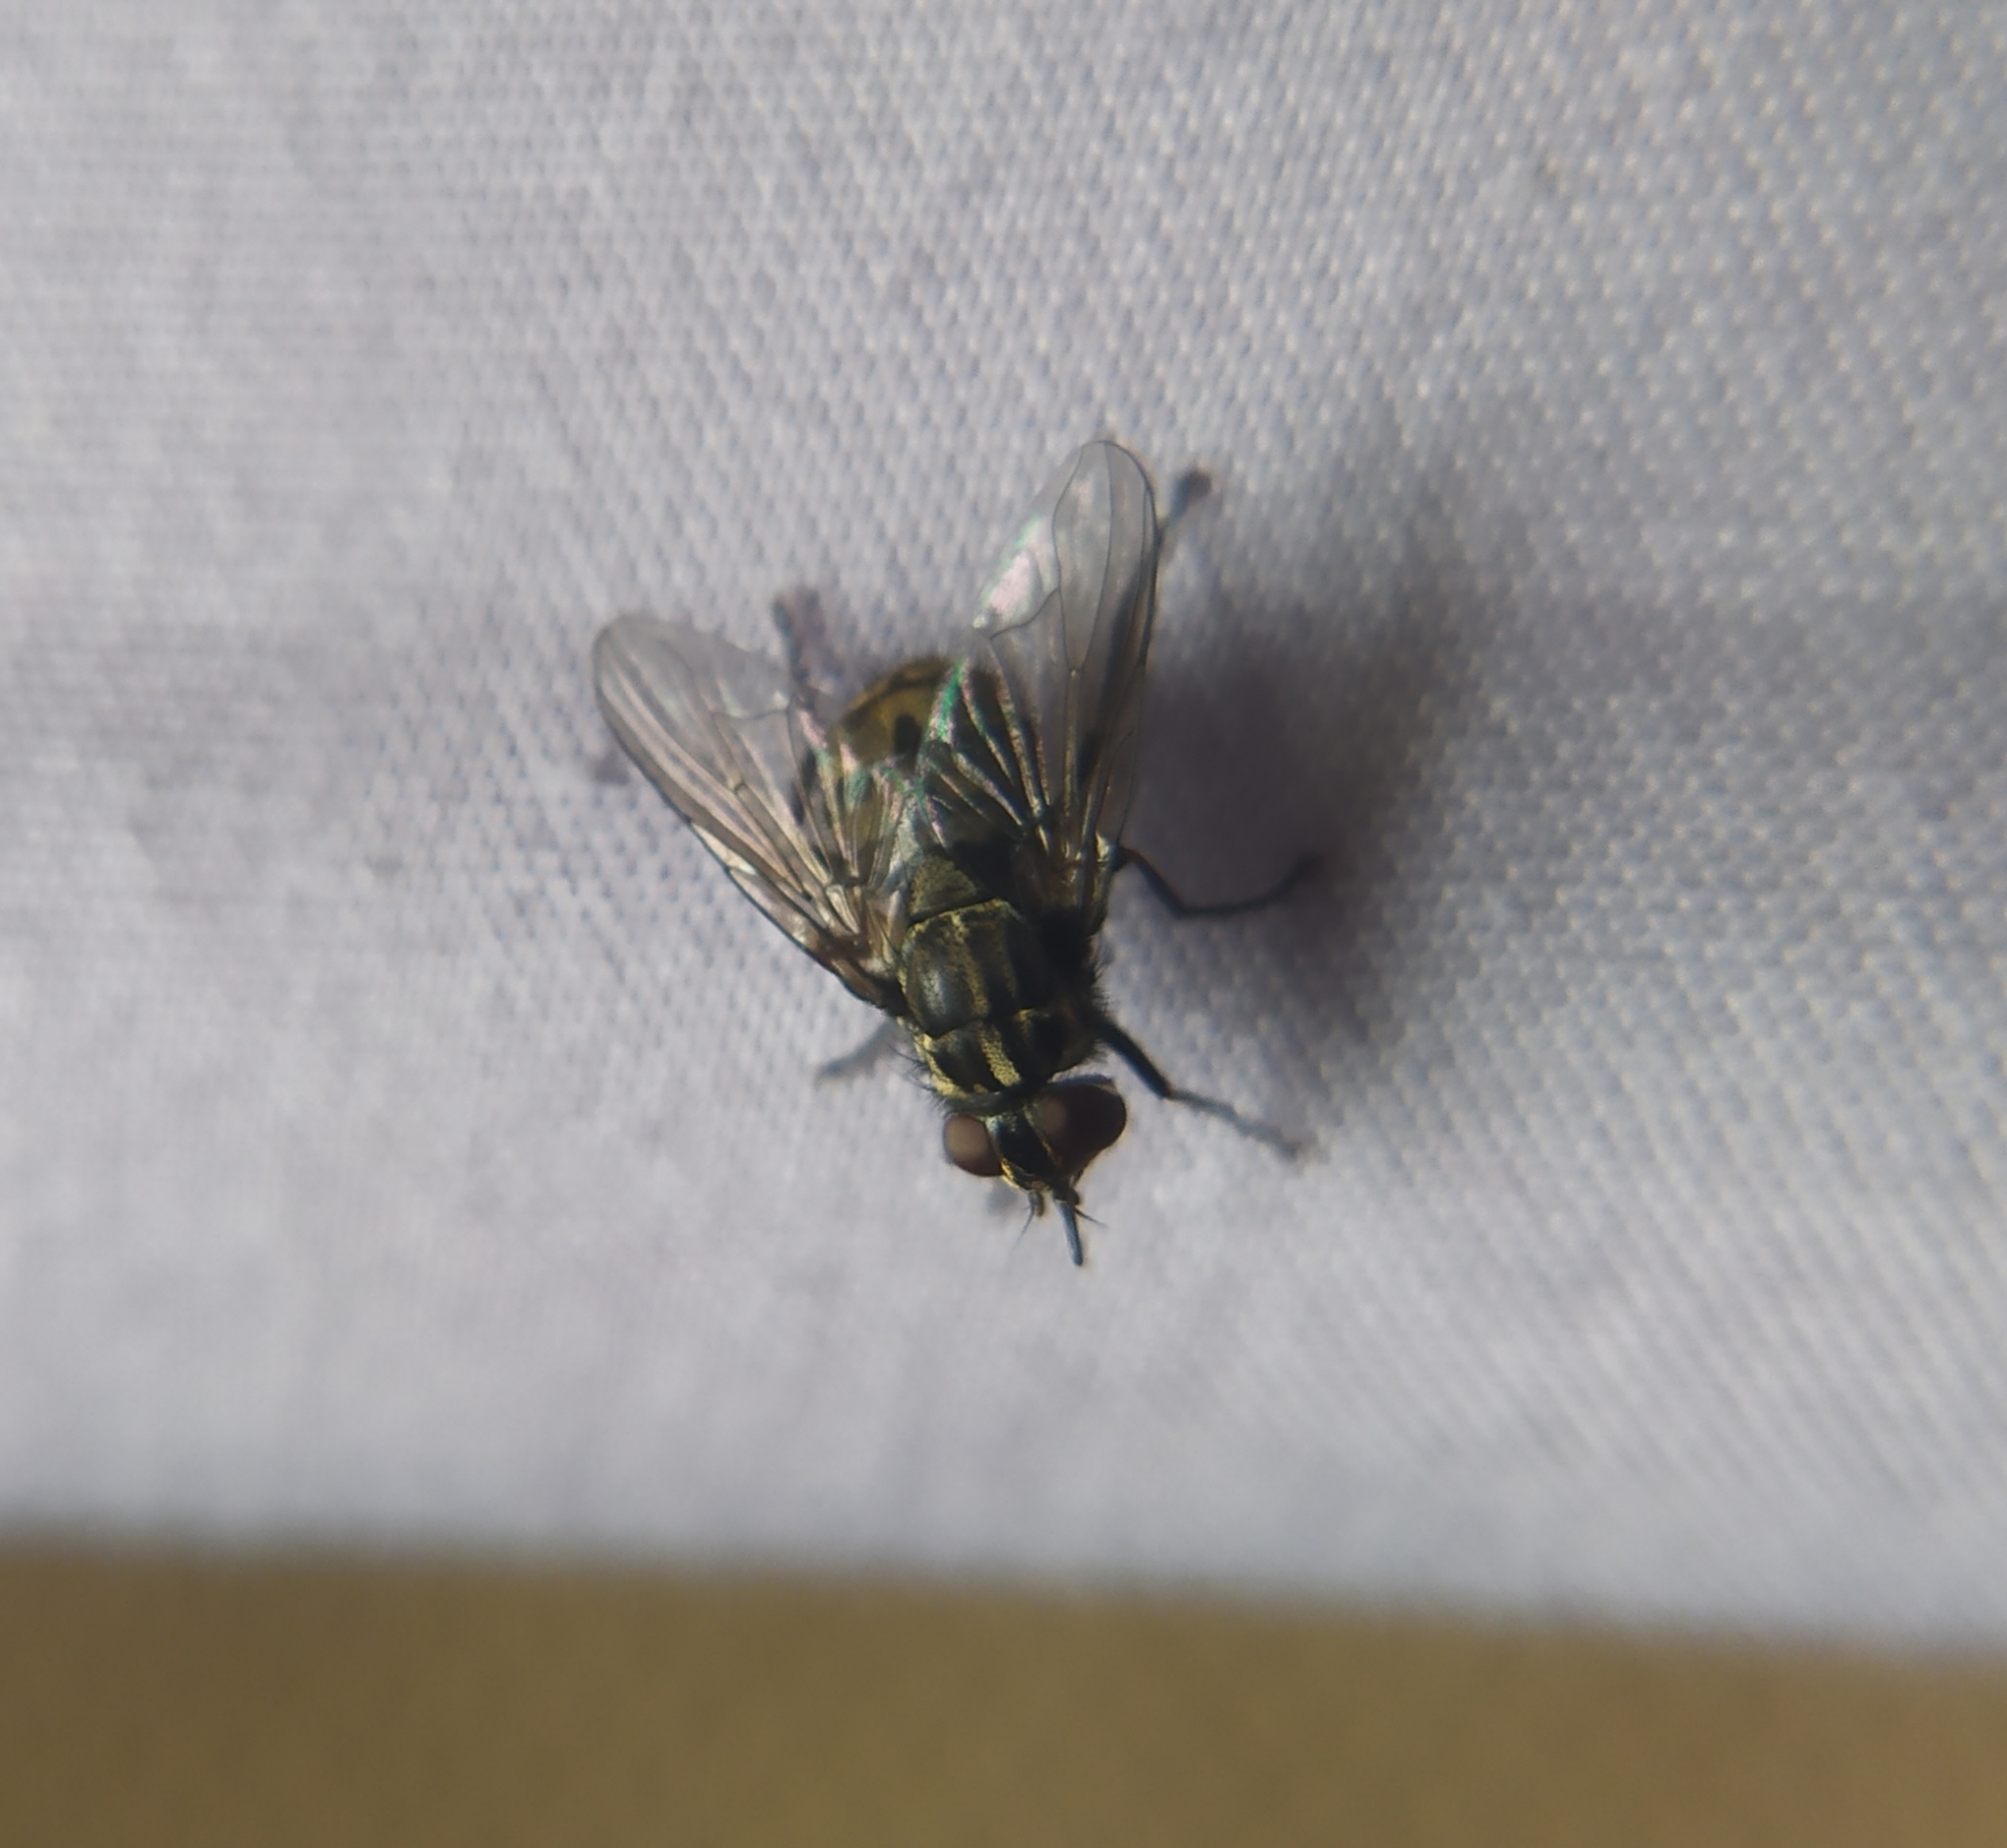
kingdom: Animalia
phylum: Arthropoda
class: Insecta
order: Diptera
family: Muscidae
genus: Stomoxys
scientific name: Stomoxys calcitrans
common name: Stable fly
